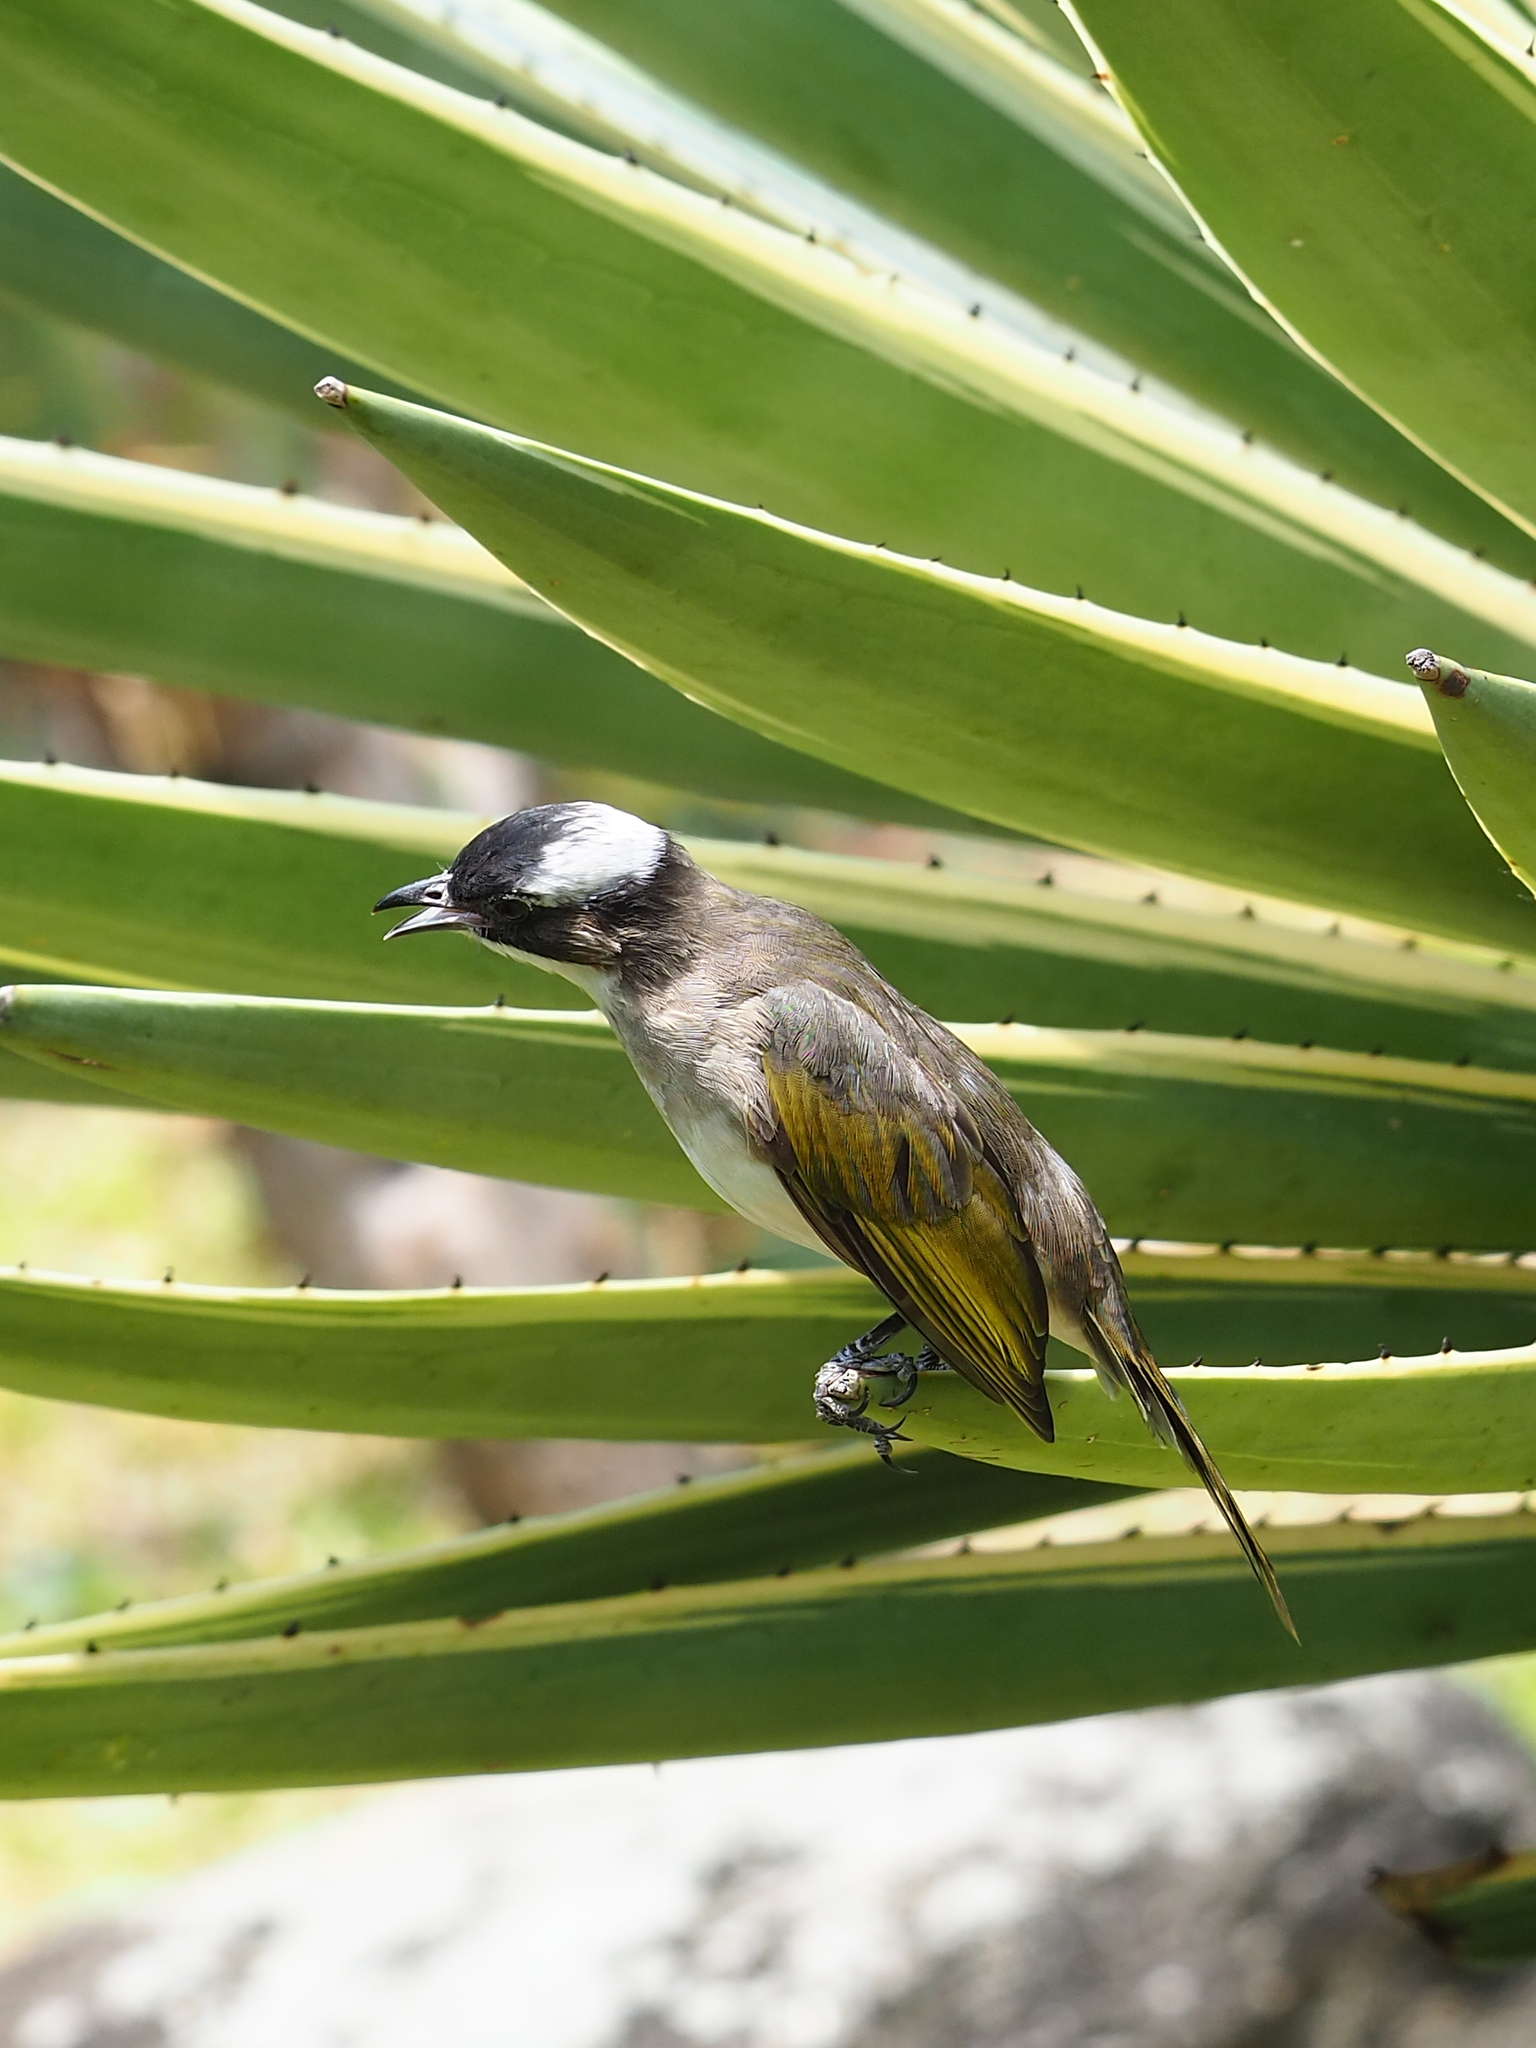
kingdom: Animalia
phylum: Chordata
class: Aves
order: Passeriformes
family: Pycnonotidae
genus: Pycnonotus
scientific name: Pycnonotus sinensis
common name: Light-vented bulbul
